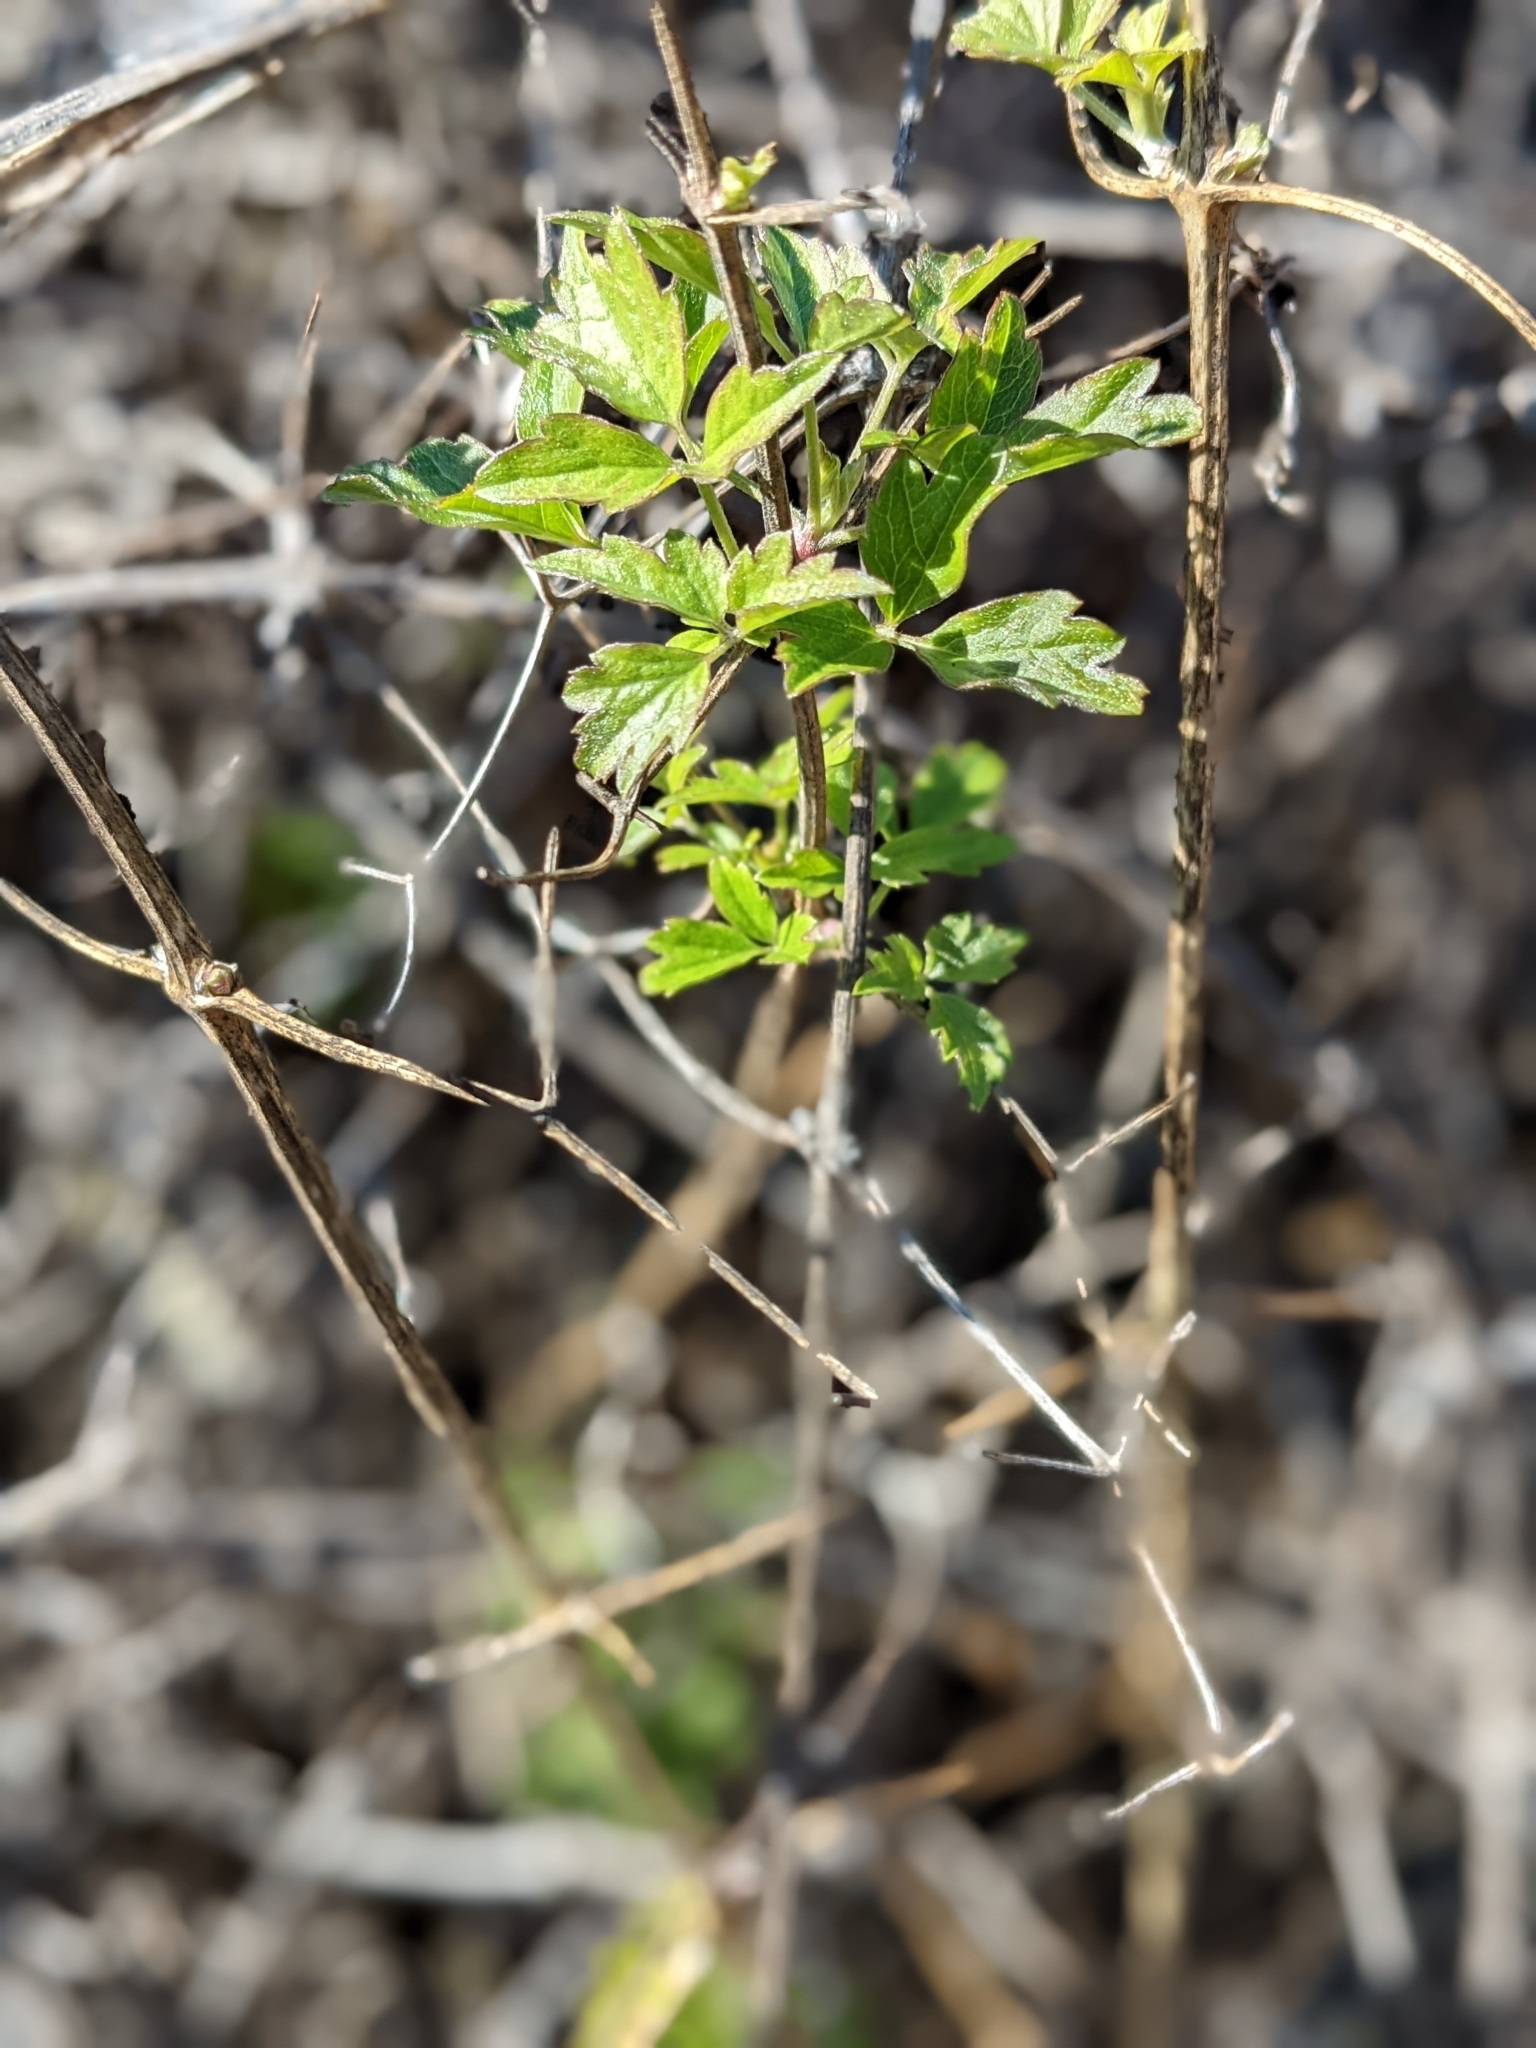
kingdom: Plantae
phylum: Tracheophyta
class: Magnoliopsida
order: Ranunculales
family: Ranunculaceae
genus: Clematis
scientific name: Clematis lasiantha
